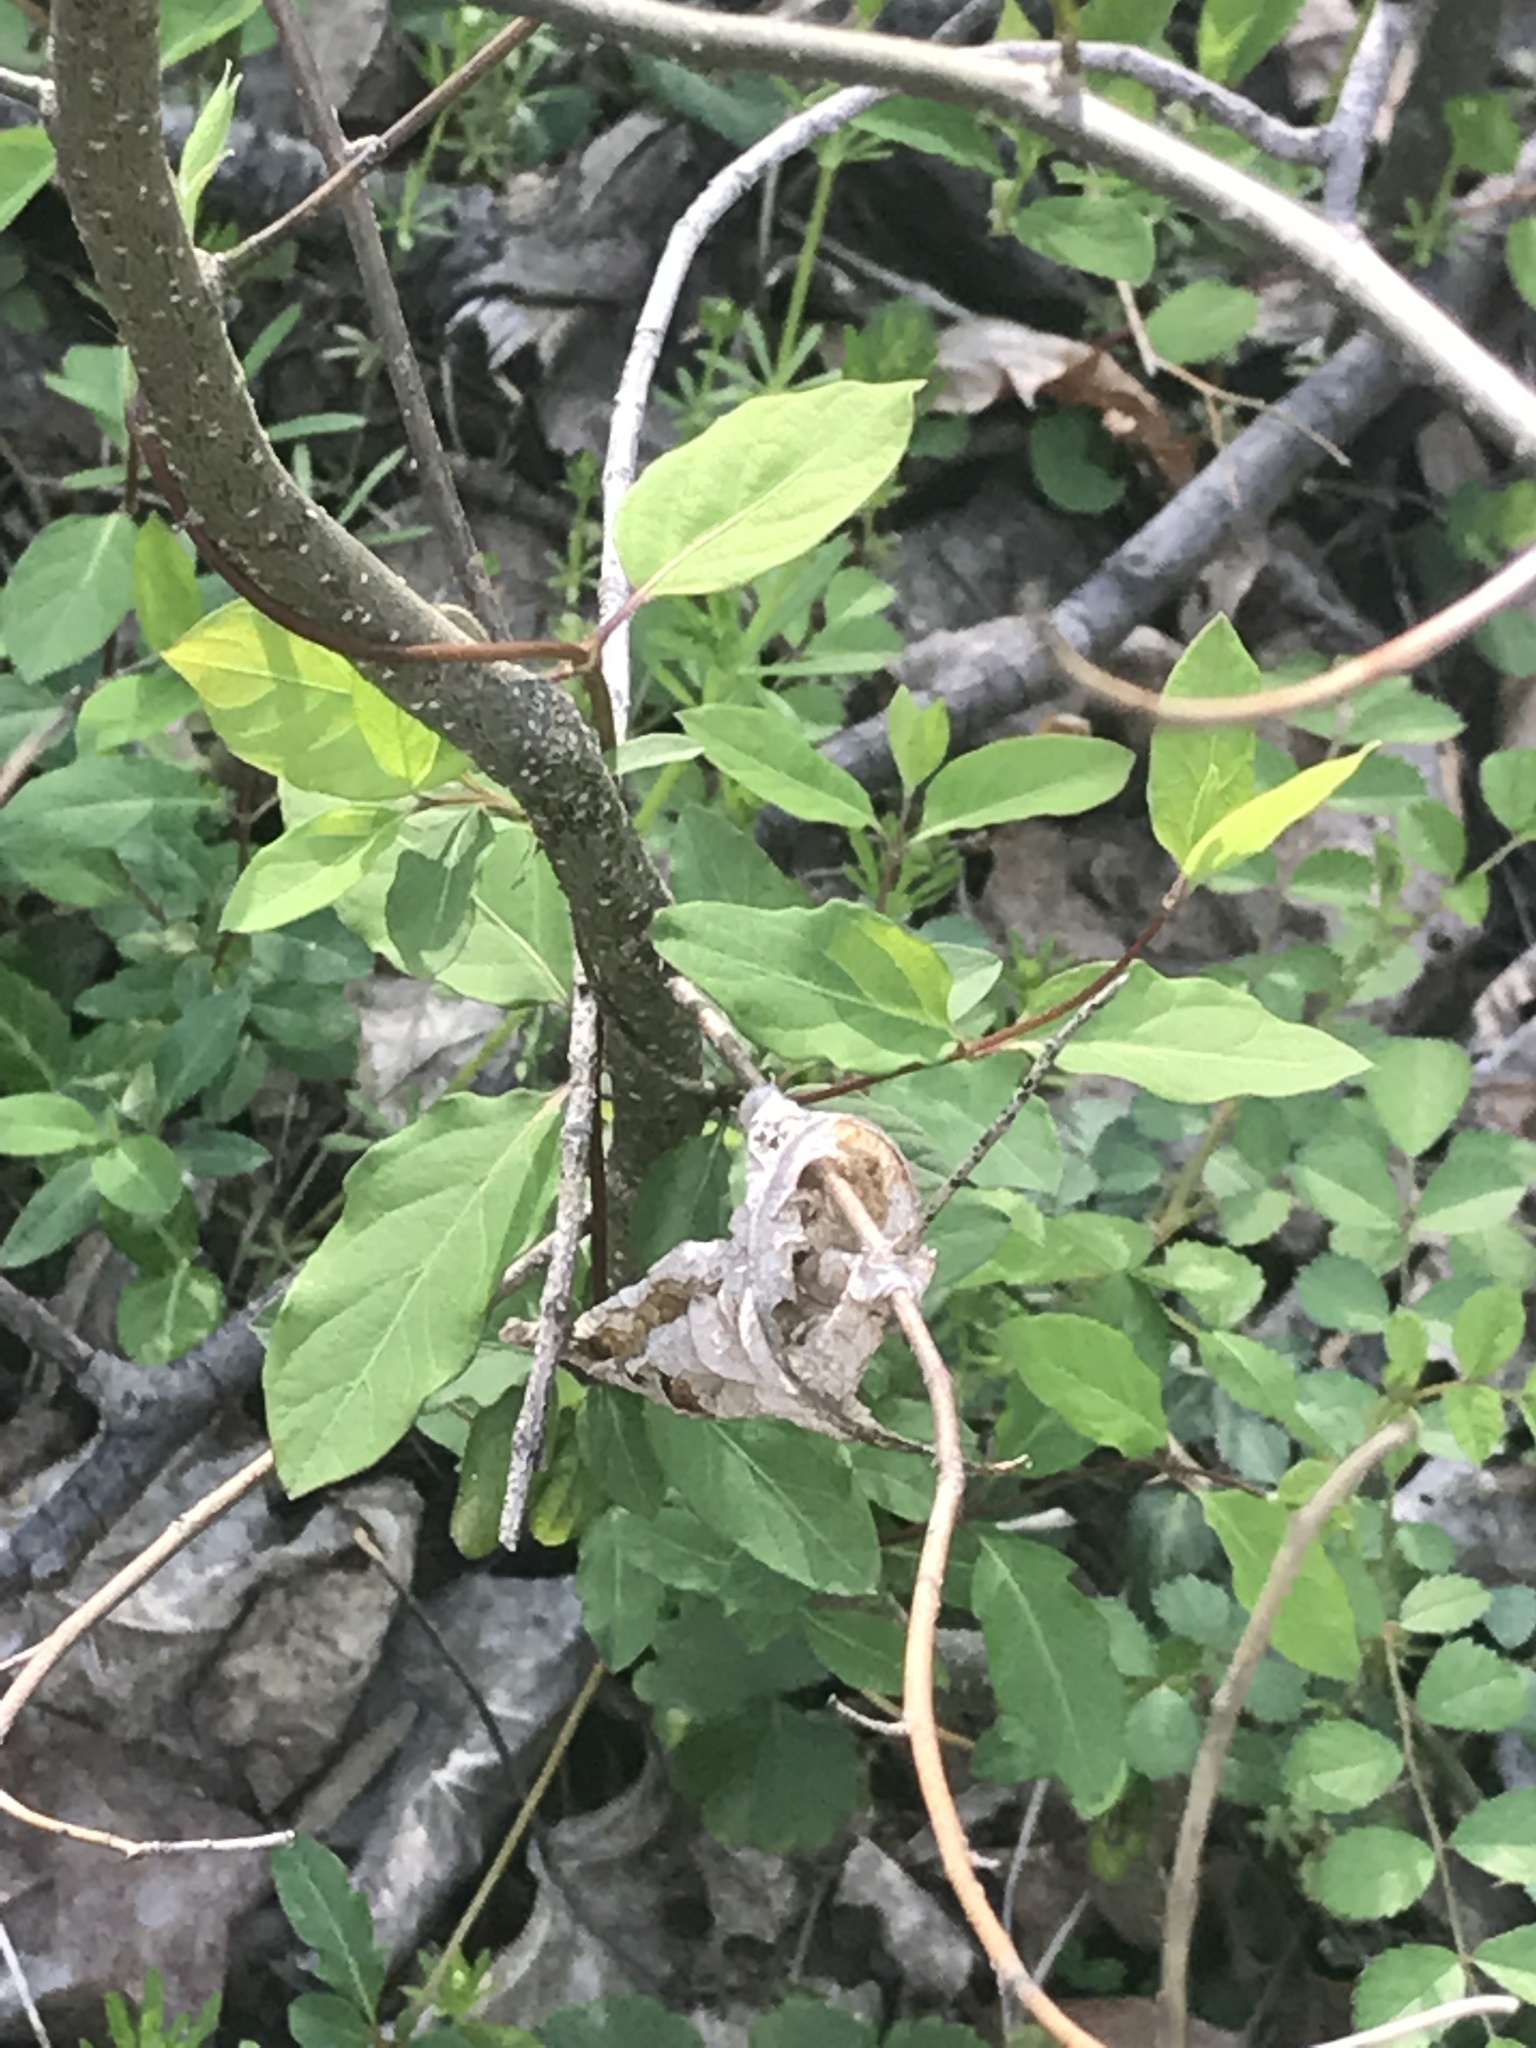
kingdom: Plantae
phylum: Tracheophyta
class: Magnoliopsida
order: Dipsacales
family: Caprifoliaceae
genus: Lonicera
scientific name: Lonicera japonica
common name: Japanese honeysuckle
